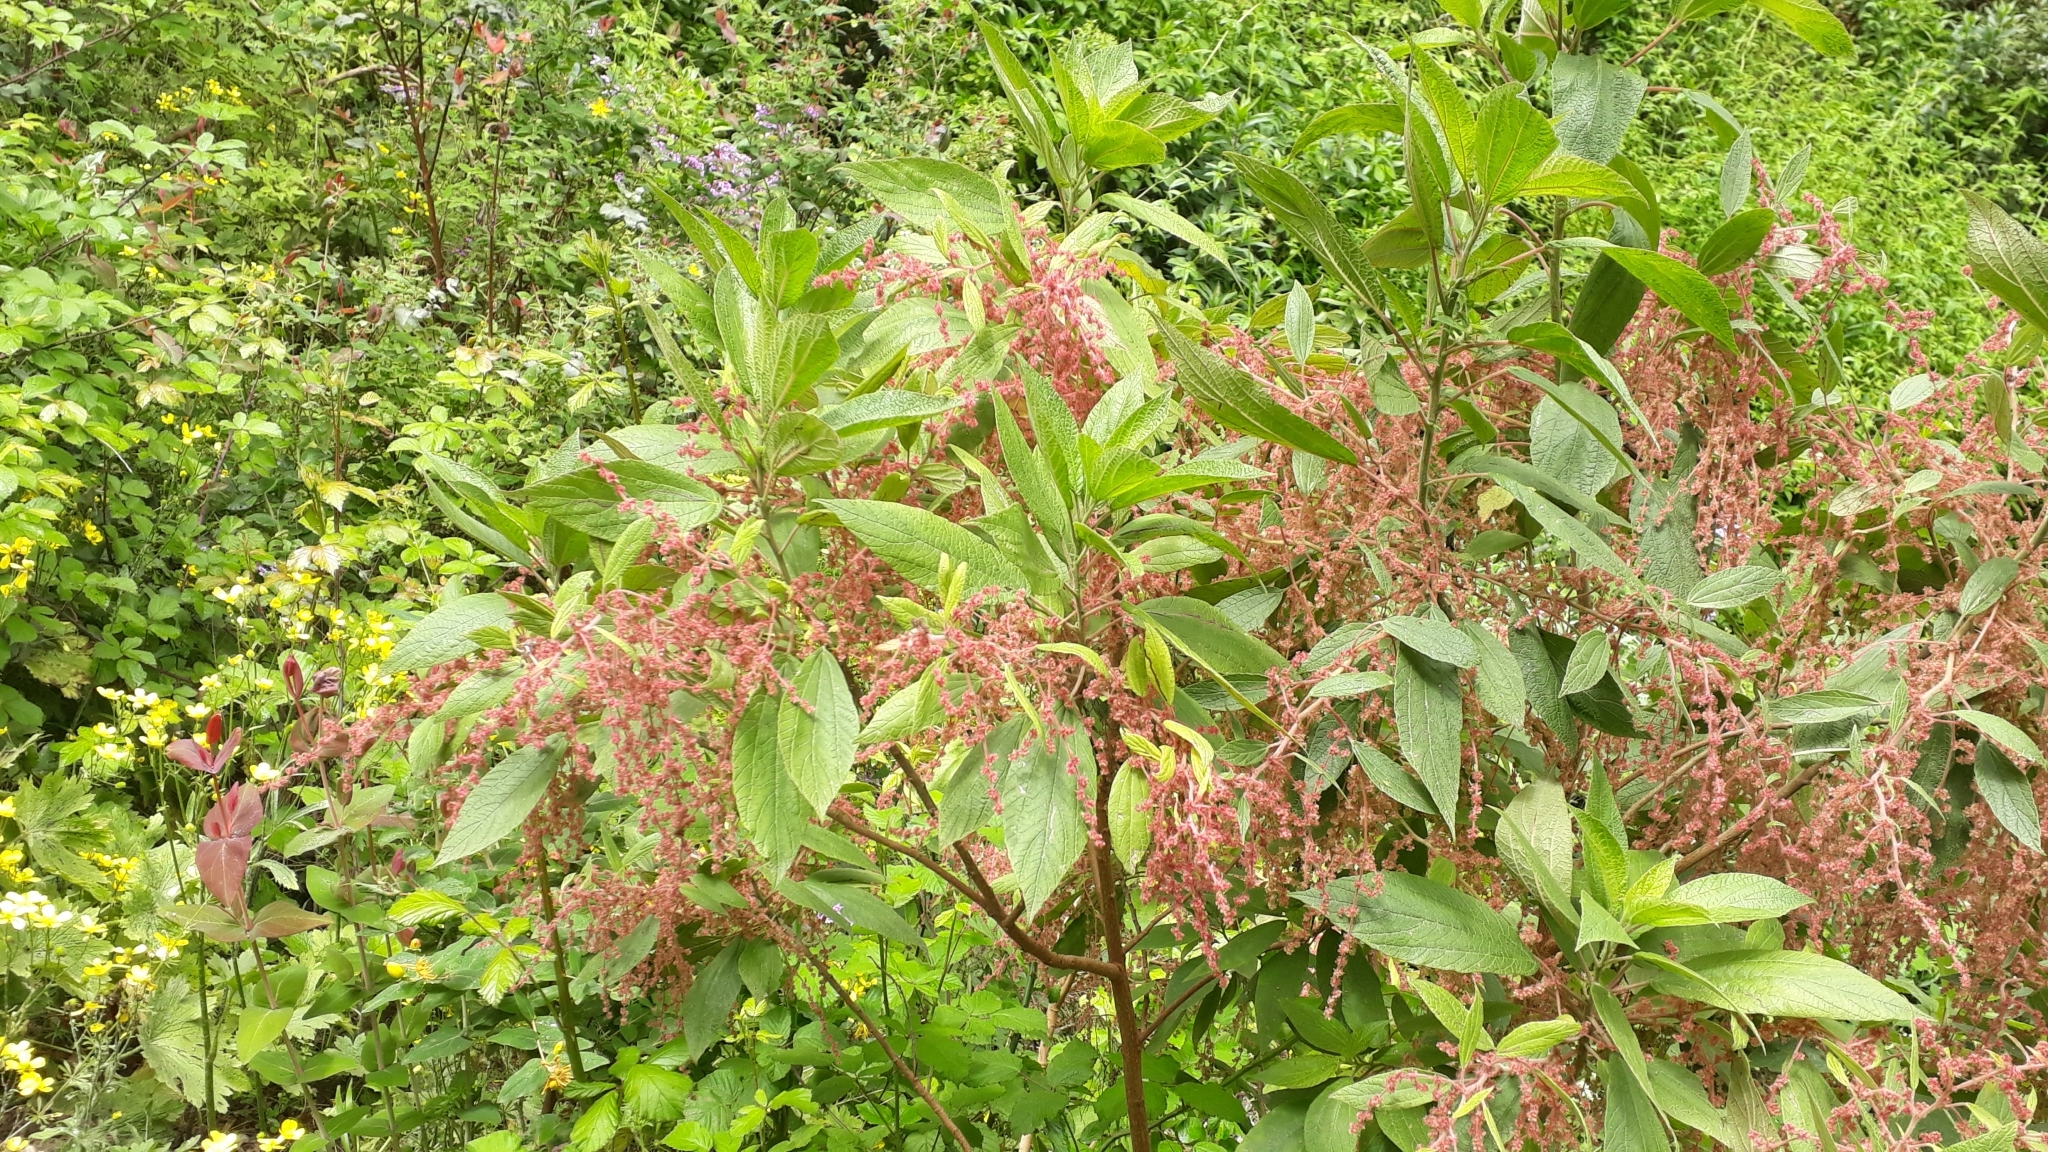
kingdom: Plantae
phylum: Tracheophyta
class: Magnoliopsida
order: Rosales
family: Urticaceae
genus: Gesnouinia
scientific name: Gesnouinia arborea
